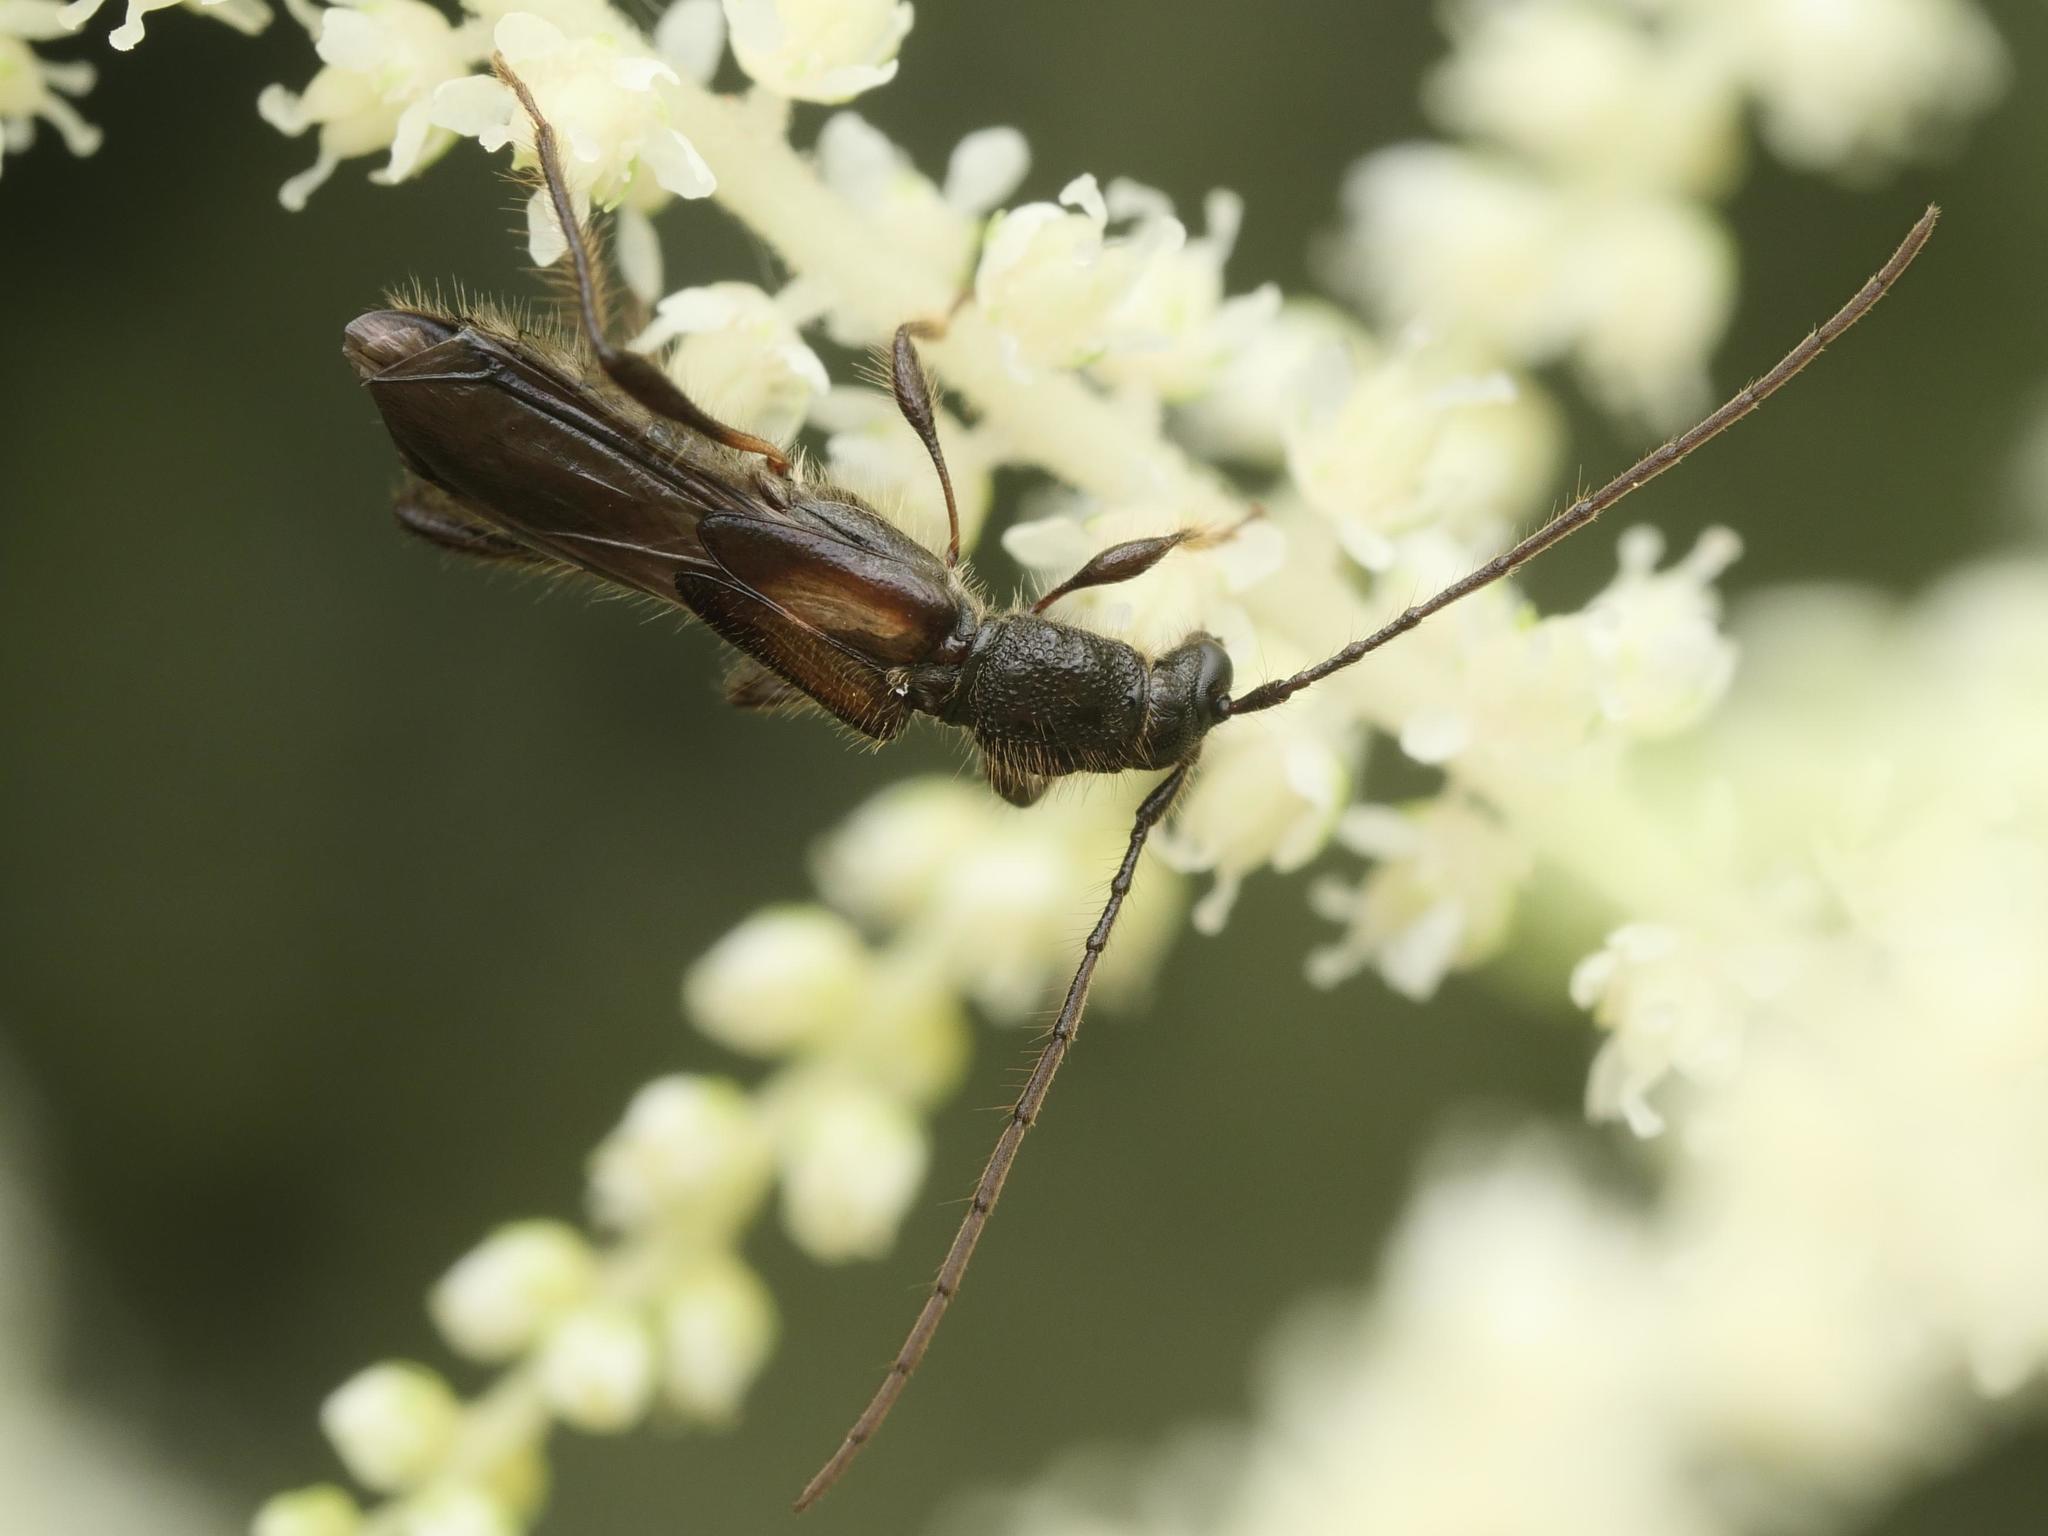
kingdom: Animalia
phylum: Arthropoda
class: Insecta
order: Coleoptera
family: Cerambycidae
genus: Molorchus
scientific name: Molorchus umbellatarum
